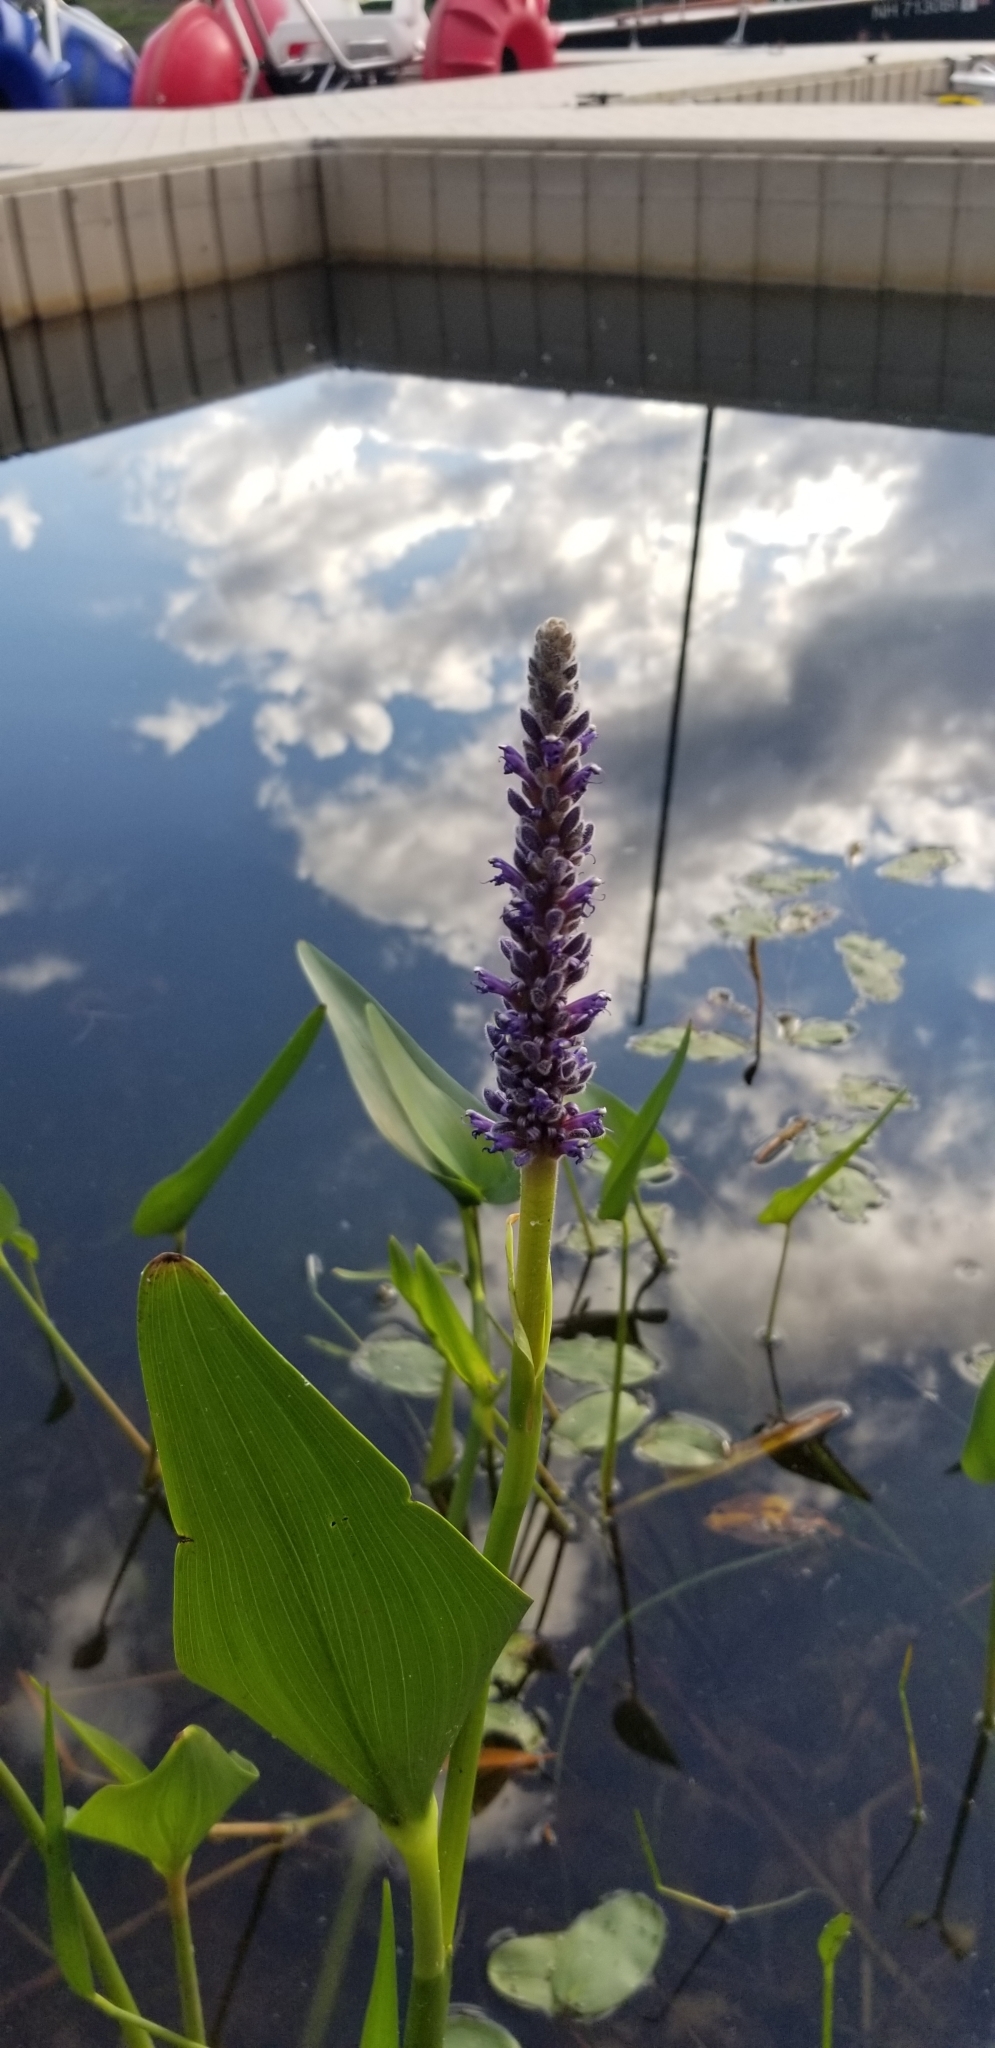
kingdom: Plantae
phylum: Tracheophyta
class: Liliopsida
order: Commelinales
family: Pontederiaceae
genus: Pontederia
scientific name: Pontederia cordata
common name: Pickerelweed
